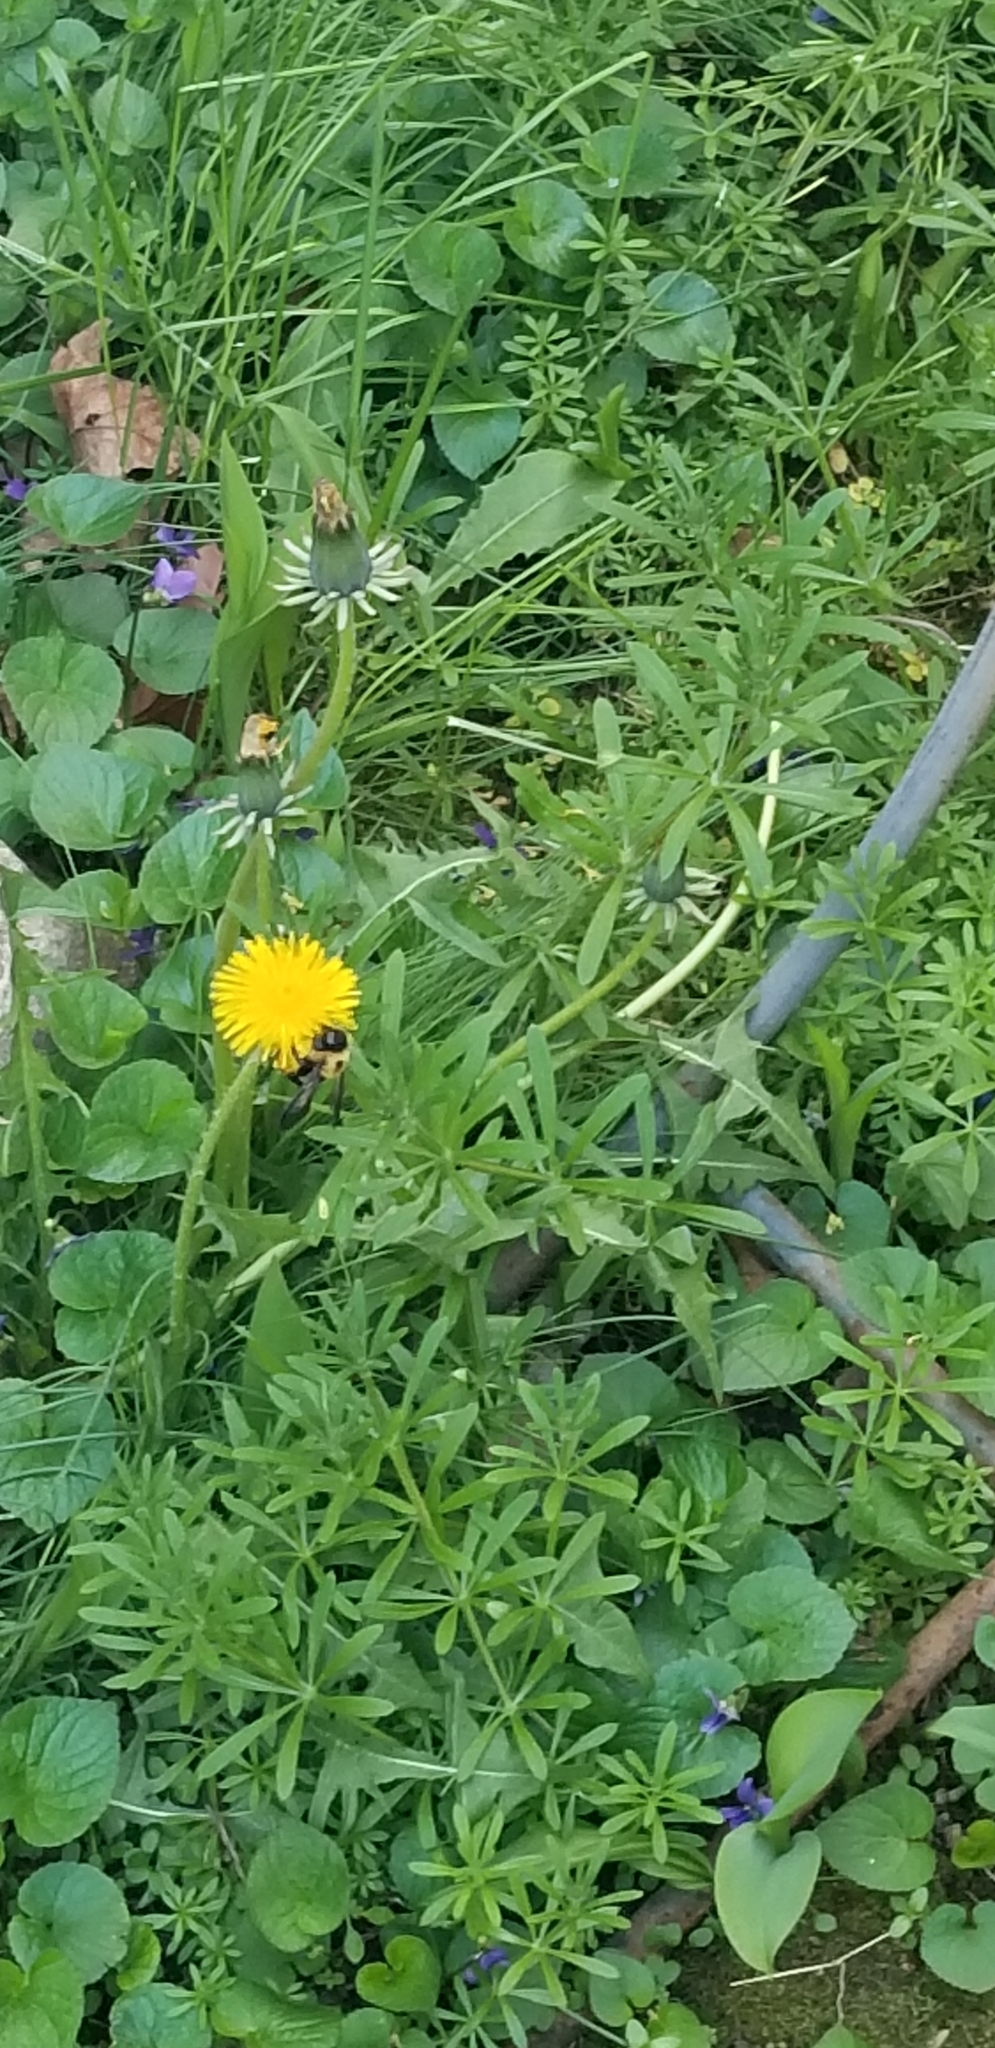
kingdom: Plantae
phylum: Tracheophyta
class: Magnoliopsida
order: Asterales
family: Asteraceae
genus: Taraxacum
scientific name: Taraxacum officinale
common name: Common dandelion
